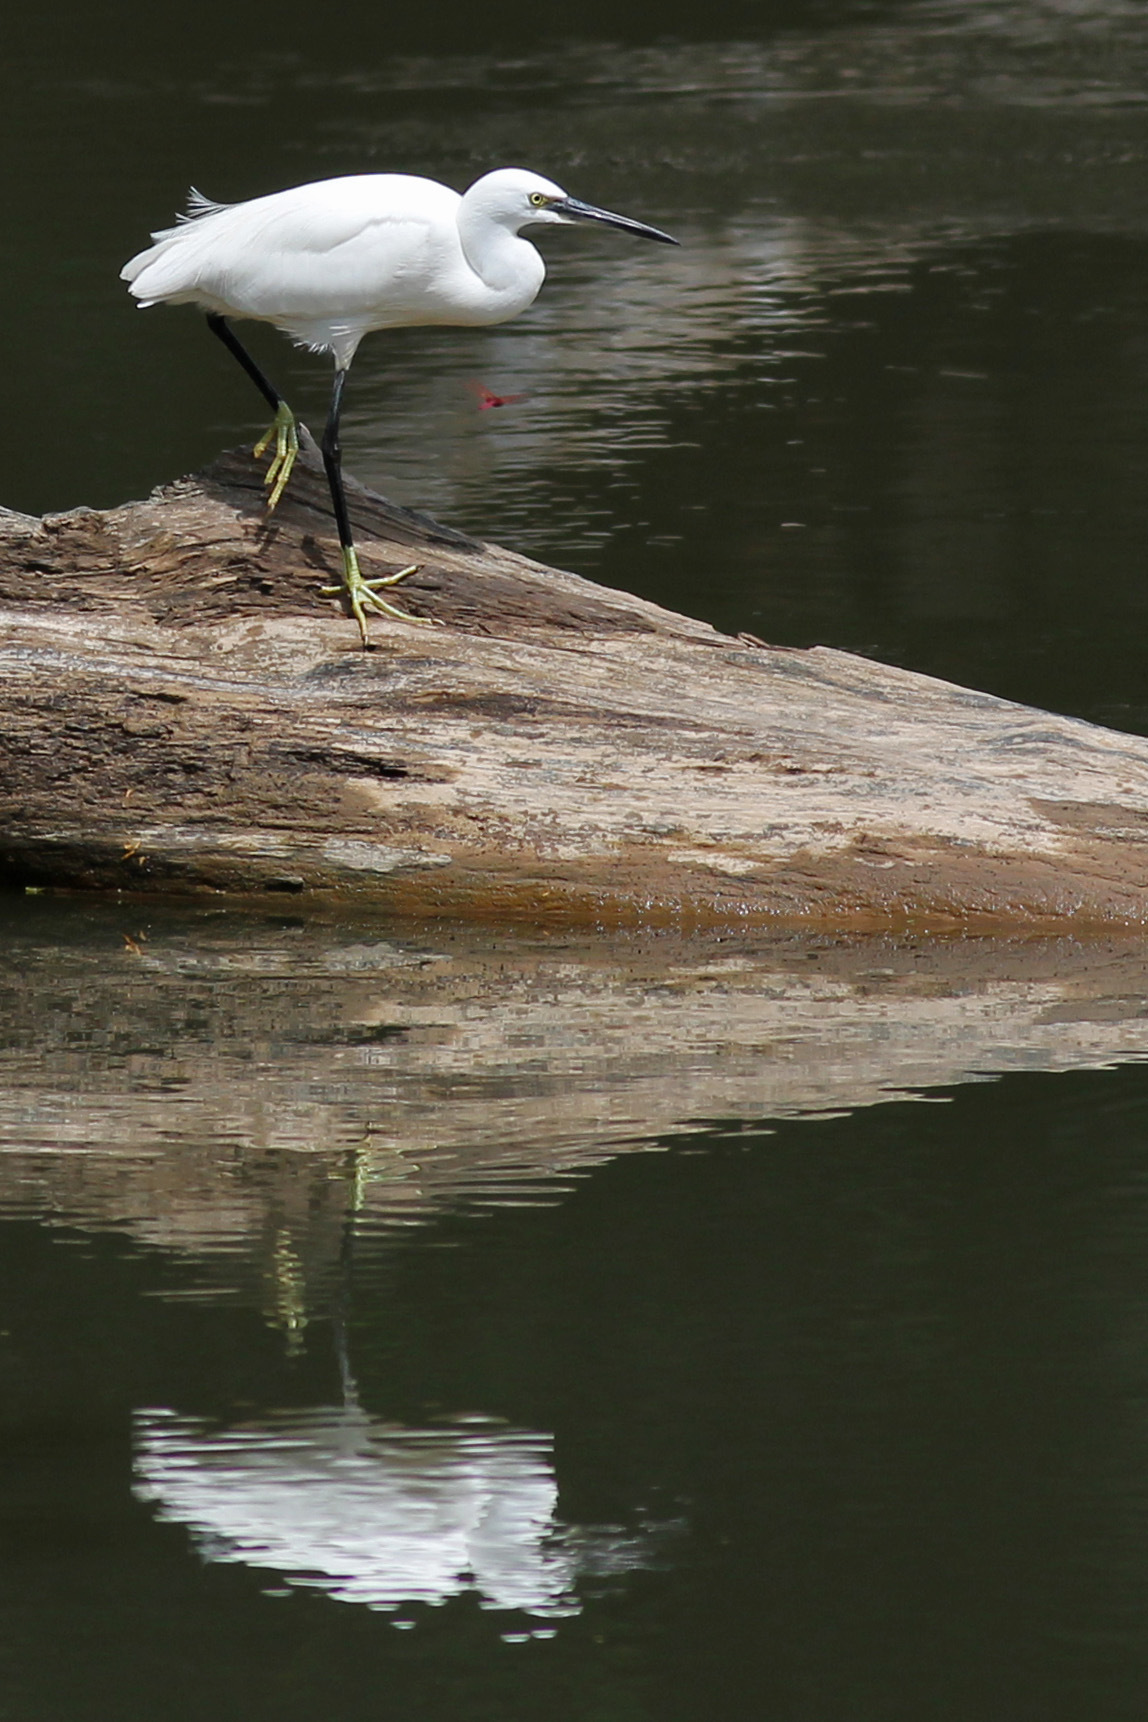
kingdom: Animalia
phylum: Chordata
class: Aves
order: Pelecaniformes
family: Ardeidae
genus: Egretta
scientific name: Egretta garzetta
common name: Little egret
